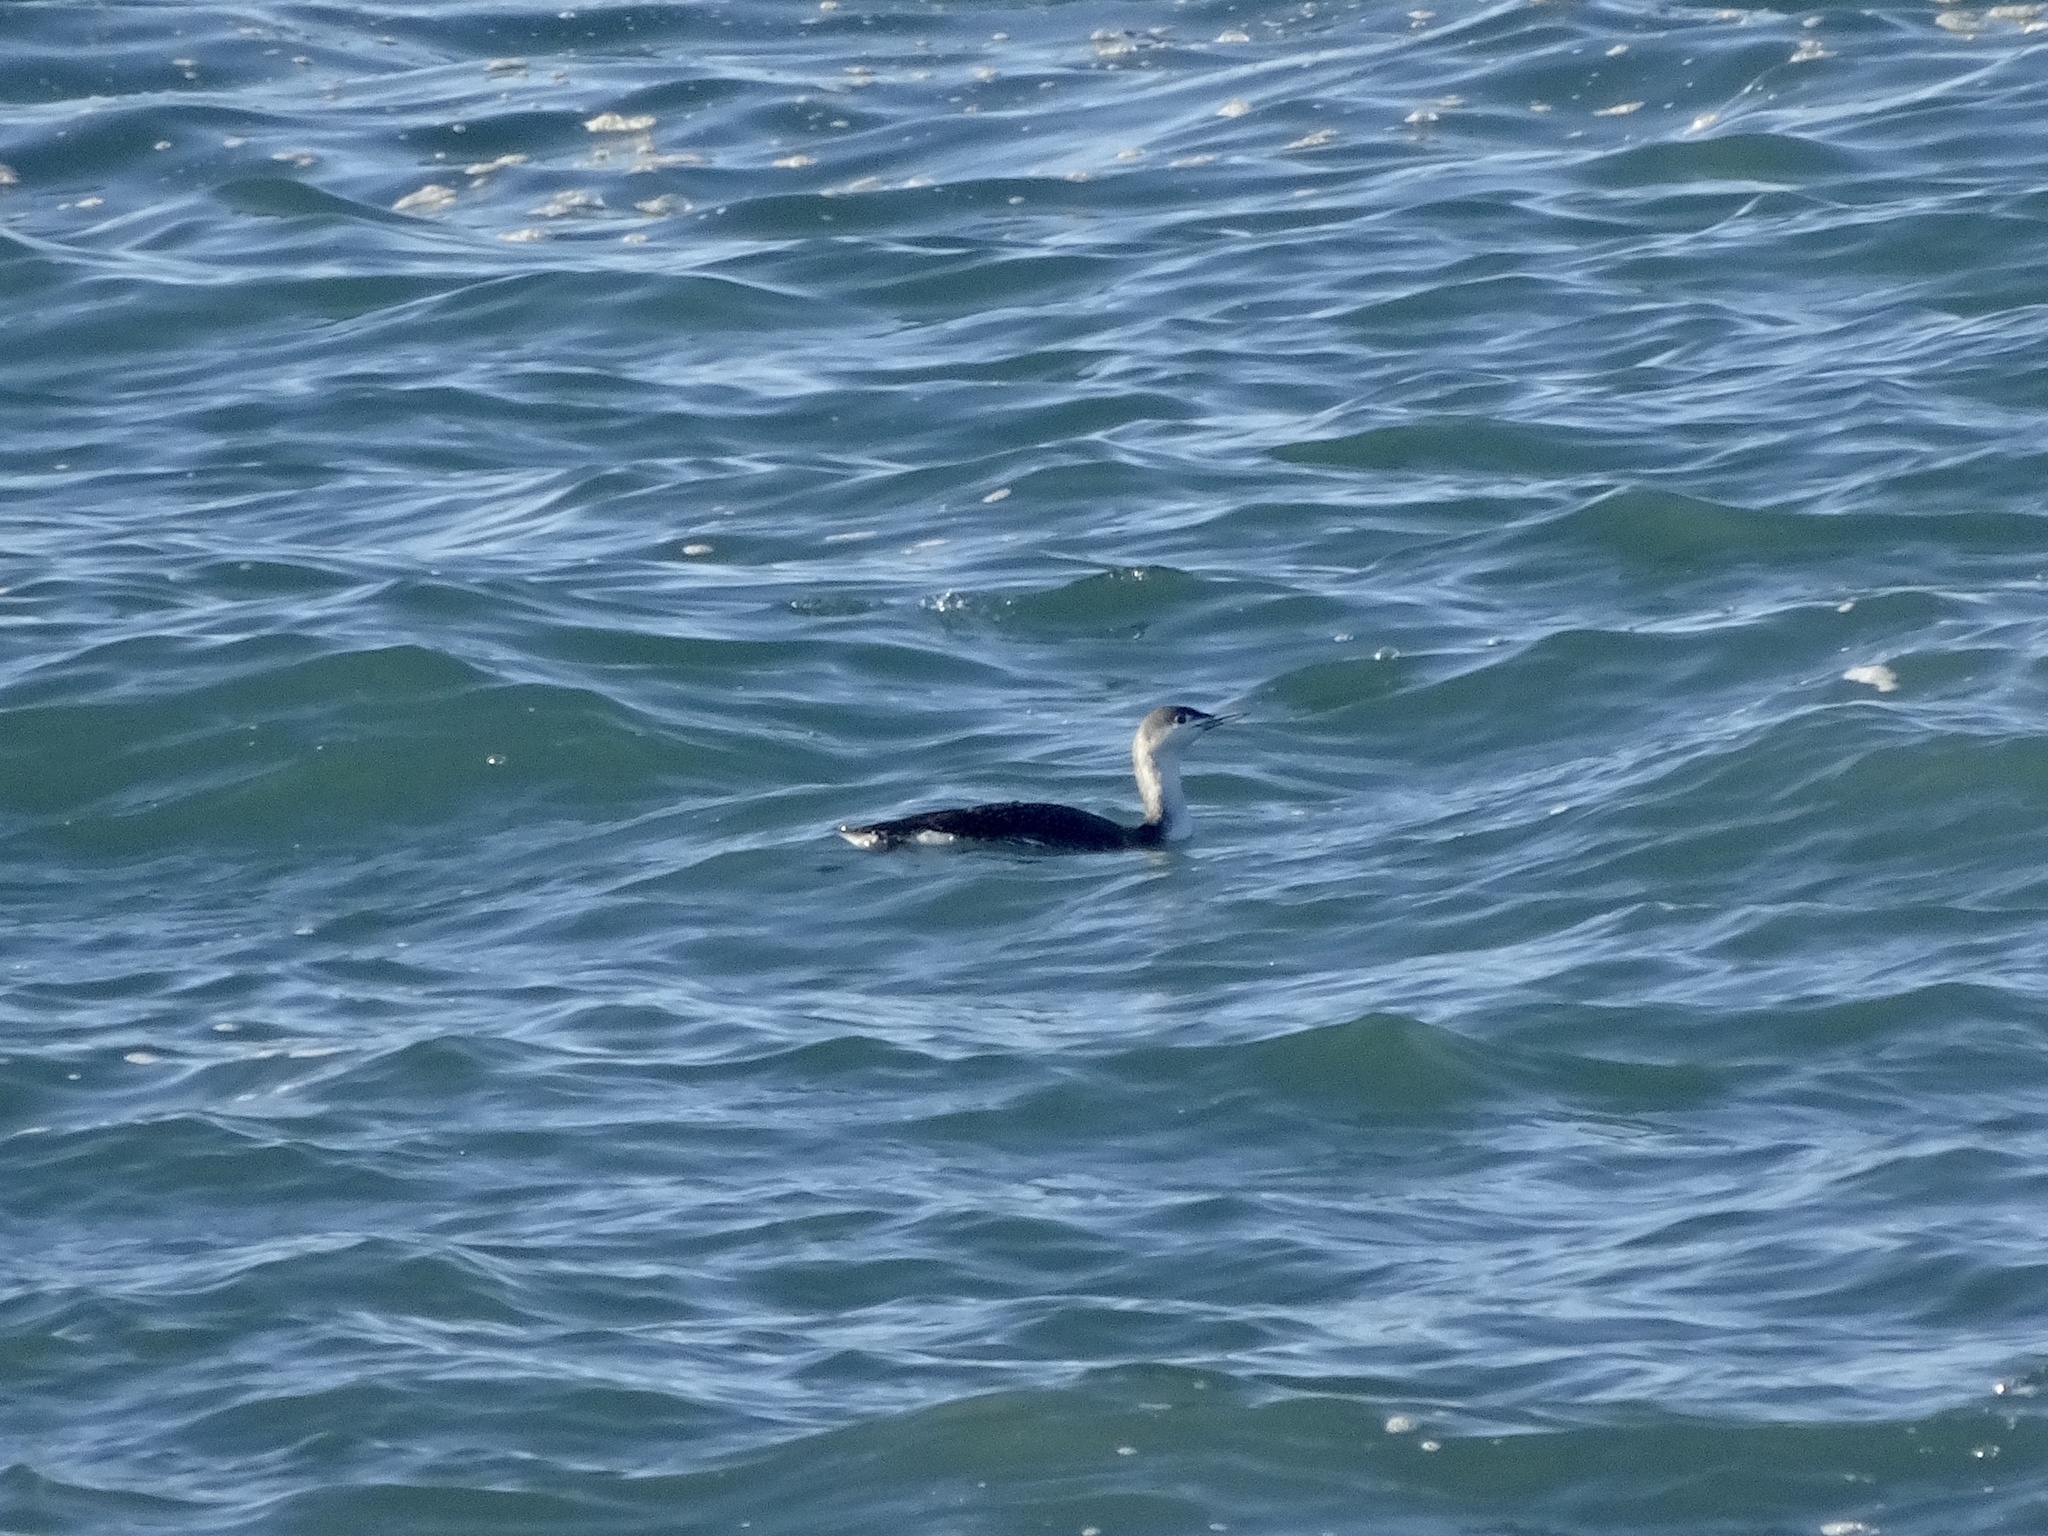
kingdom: Animalia
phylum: Chordata
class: Aves
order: Gaviiformes
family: Gaviidae
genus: Gavia
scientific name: Gavia stellata
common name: Red-throated loon
